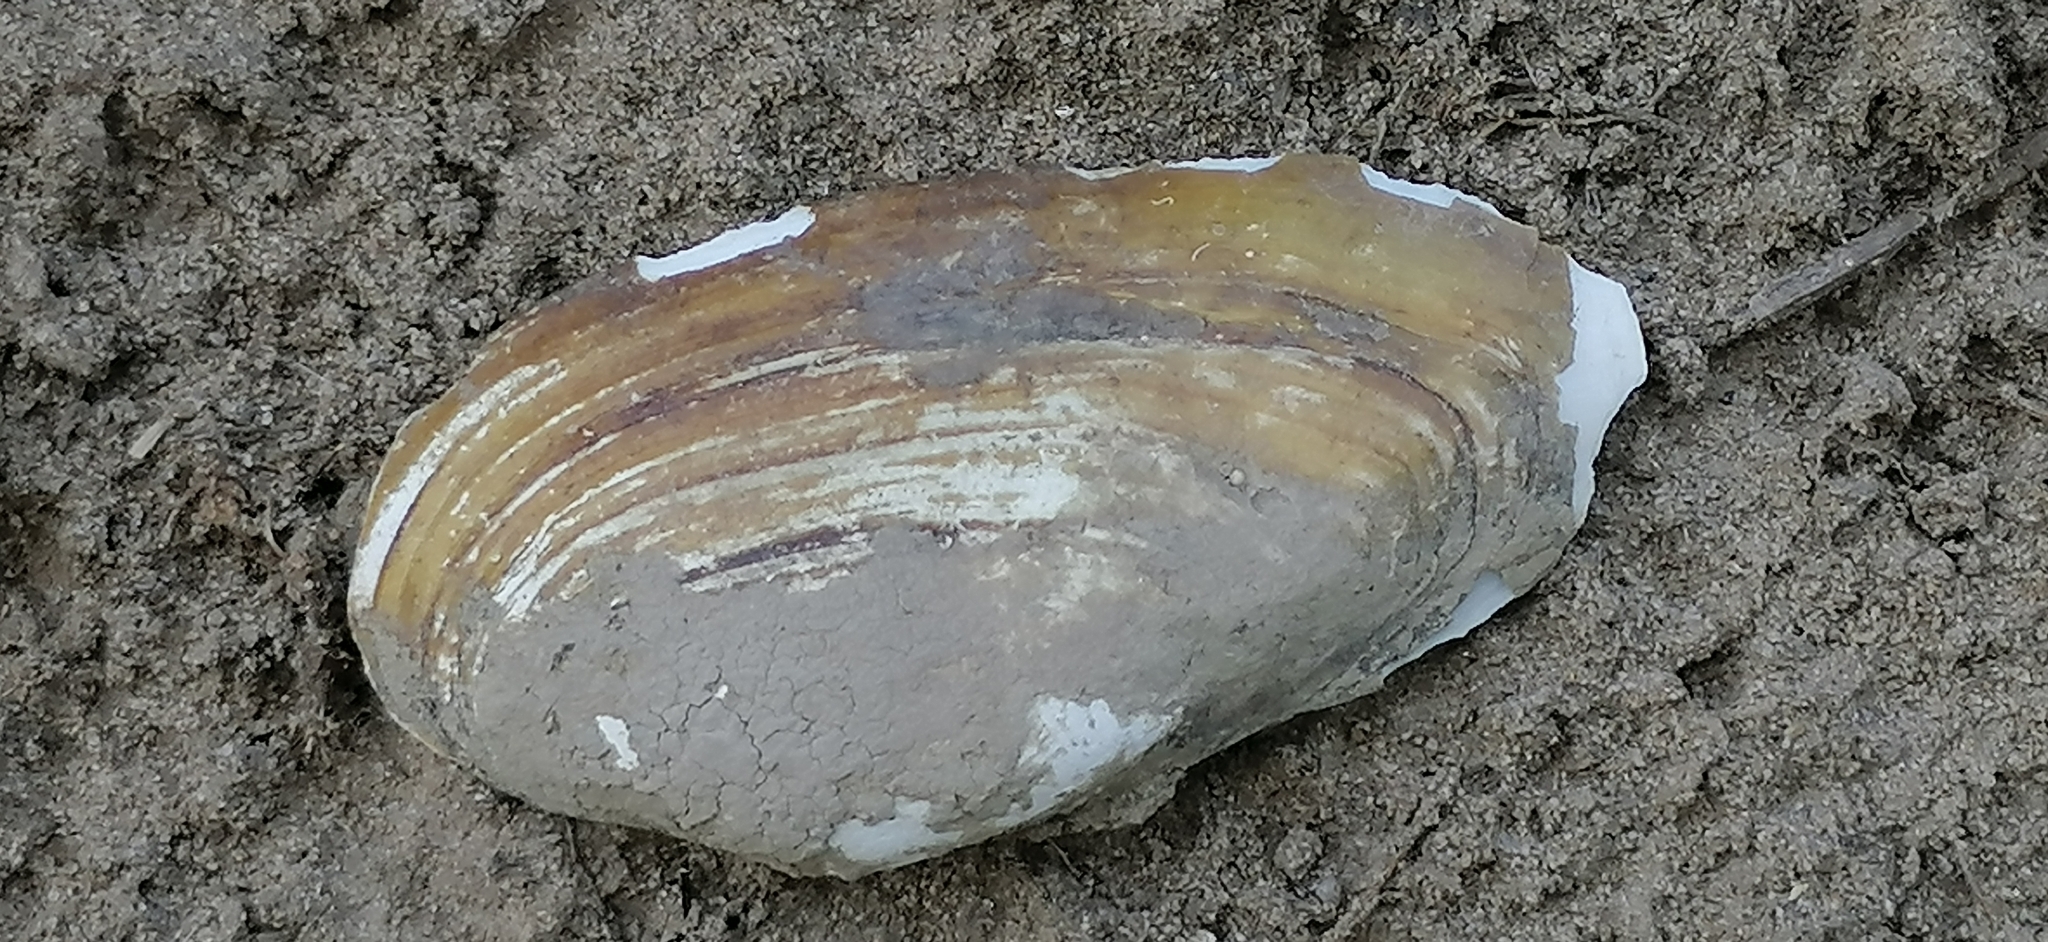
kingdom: Animalia
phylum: Mollusca
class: Bivalvia
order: Unionida
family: Unionidae
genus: Unio
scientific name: Unio pictorum
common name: Painter's mussel
